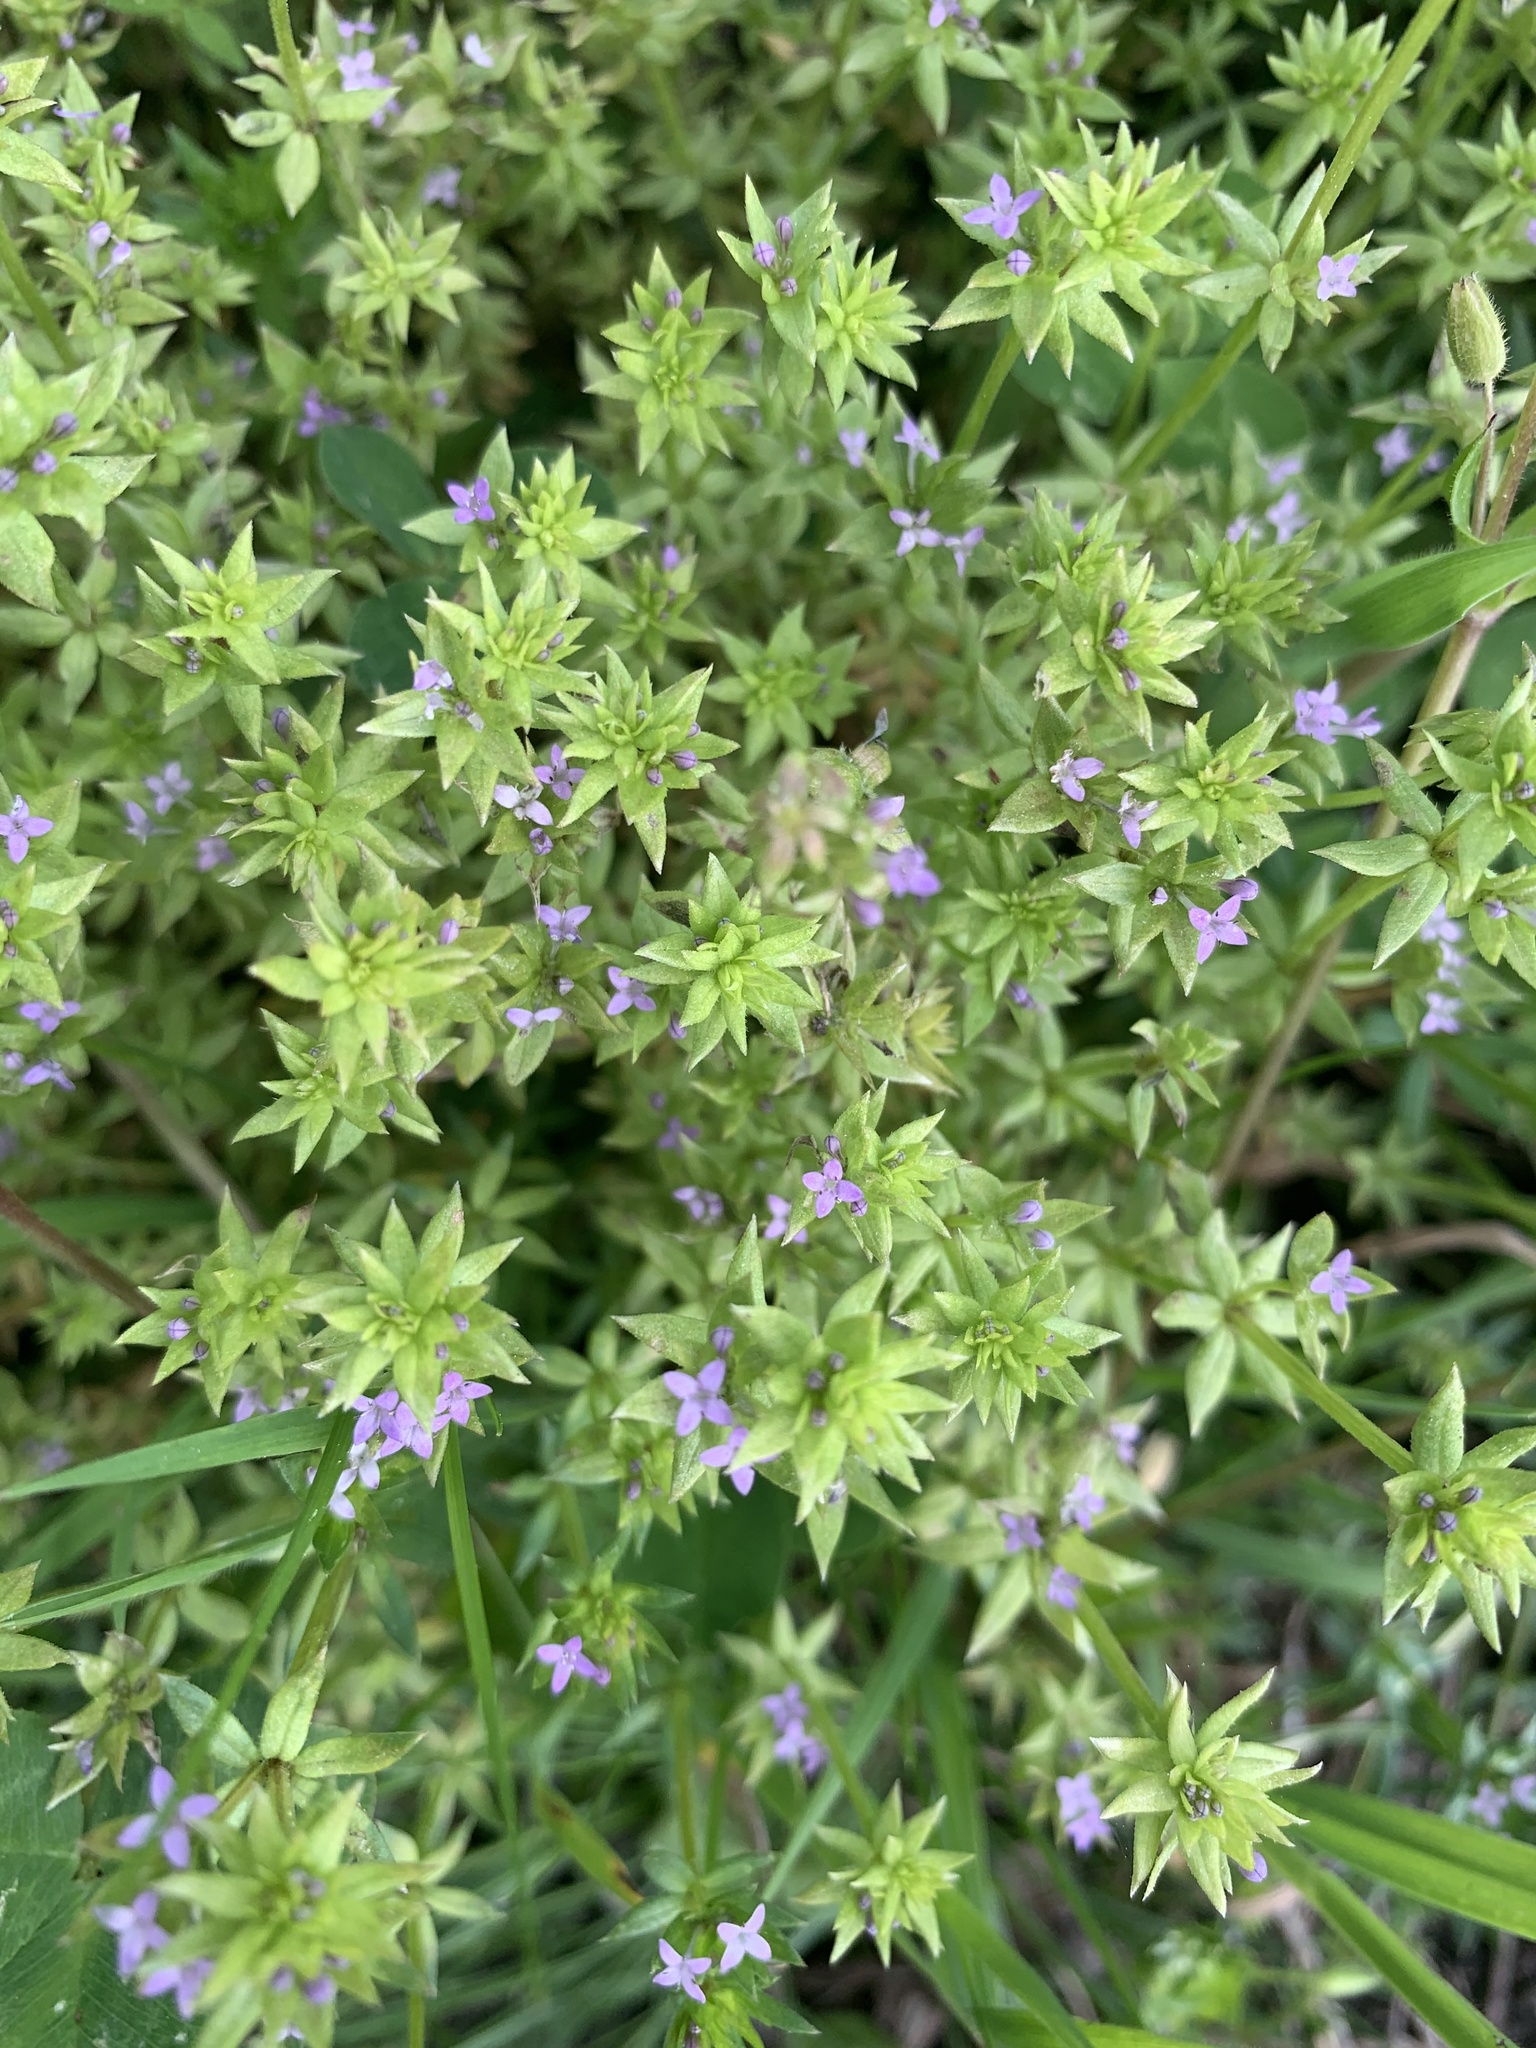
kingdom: Plantae
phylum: Tracheophyta
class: Magnoliopsida
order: Gentianales
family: Rubiaceae
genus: Sherardia
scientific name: Sherardia arvensis
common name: Field madder
